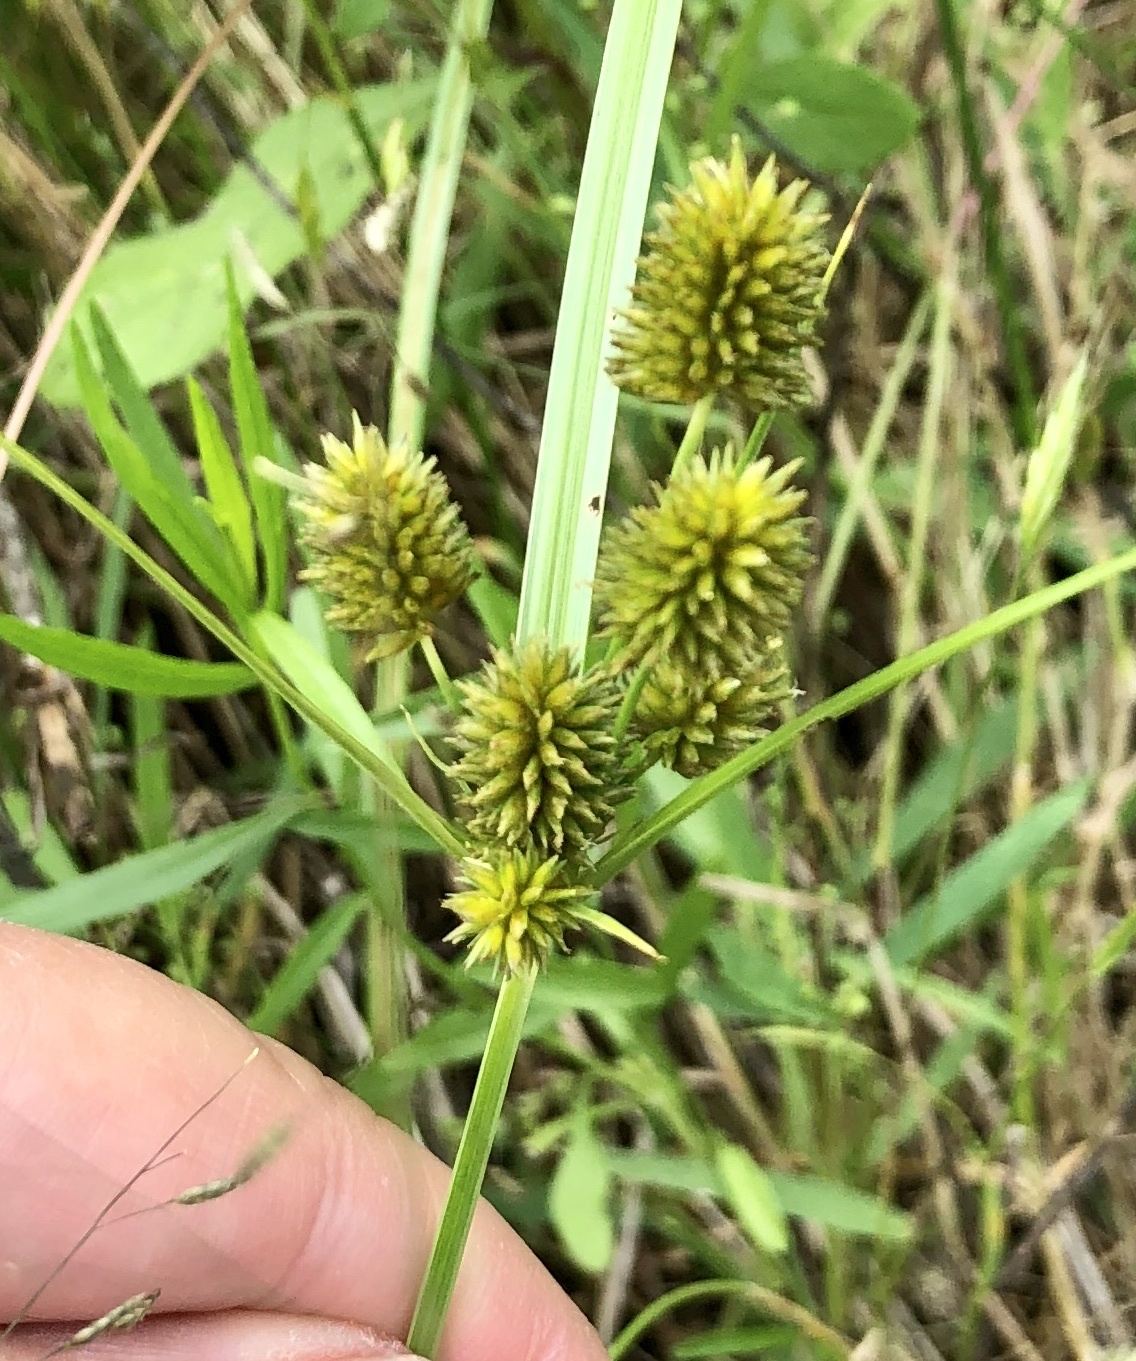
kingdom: Plantae
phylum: Tracheophyta
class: Liliopsida
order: Poales
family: Cyperaceae
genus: Cyperus
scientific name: Cyperus retrorsus
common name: Pinebarren flat sedge
